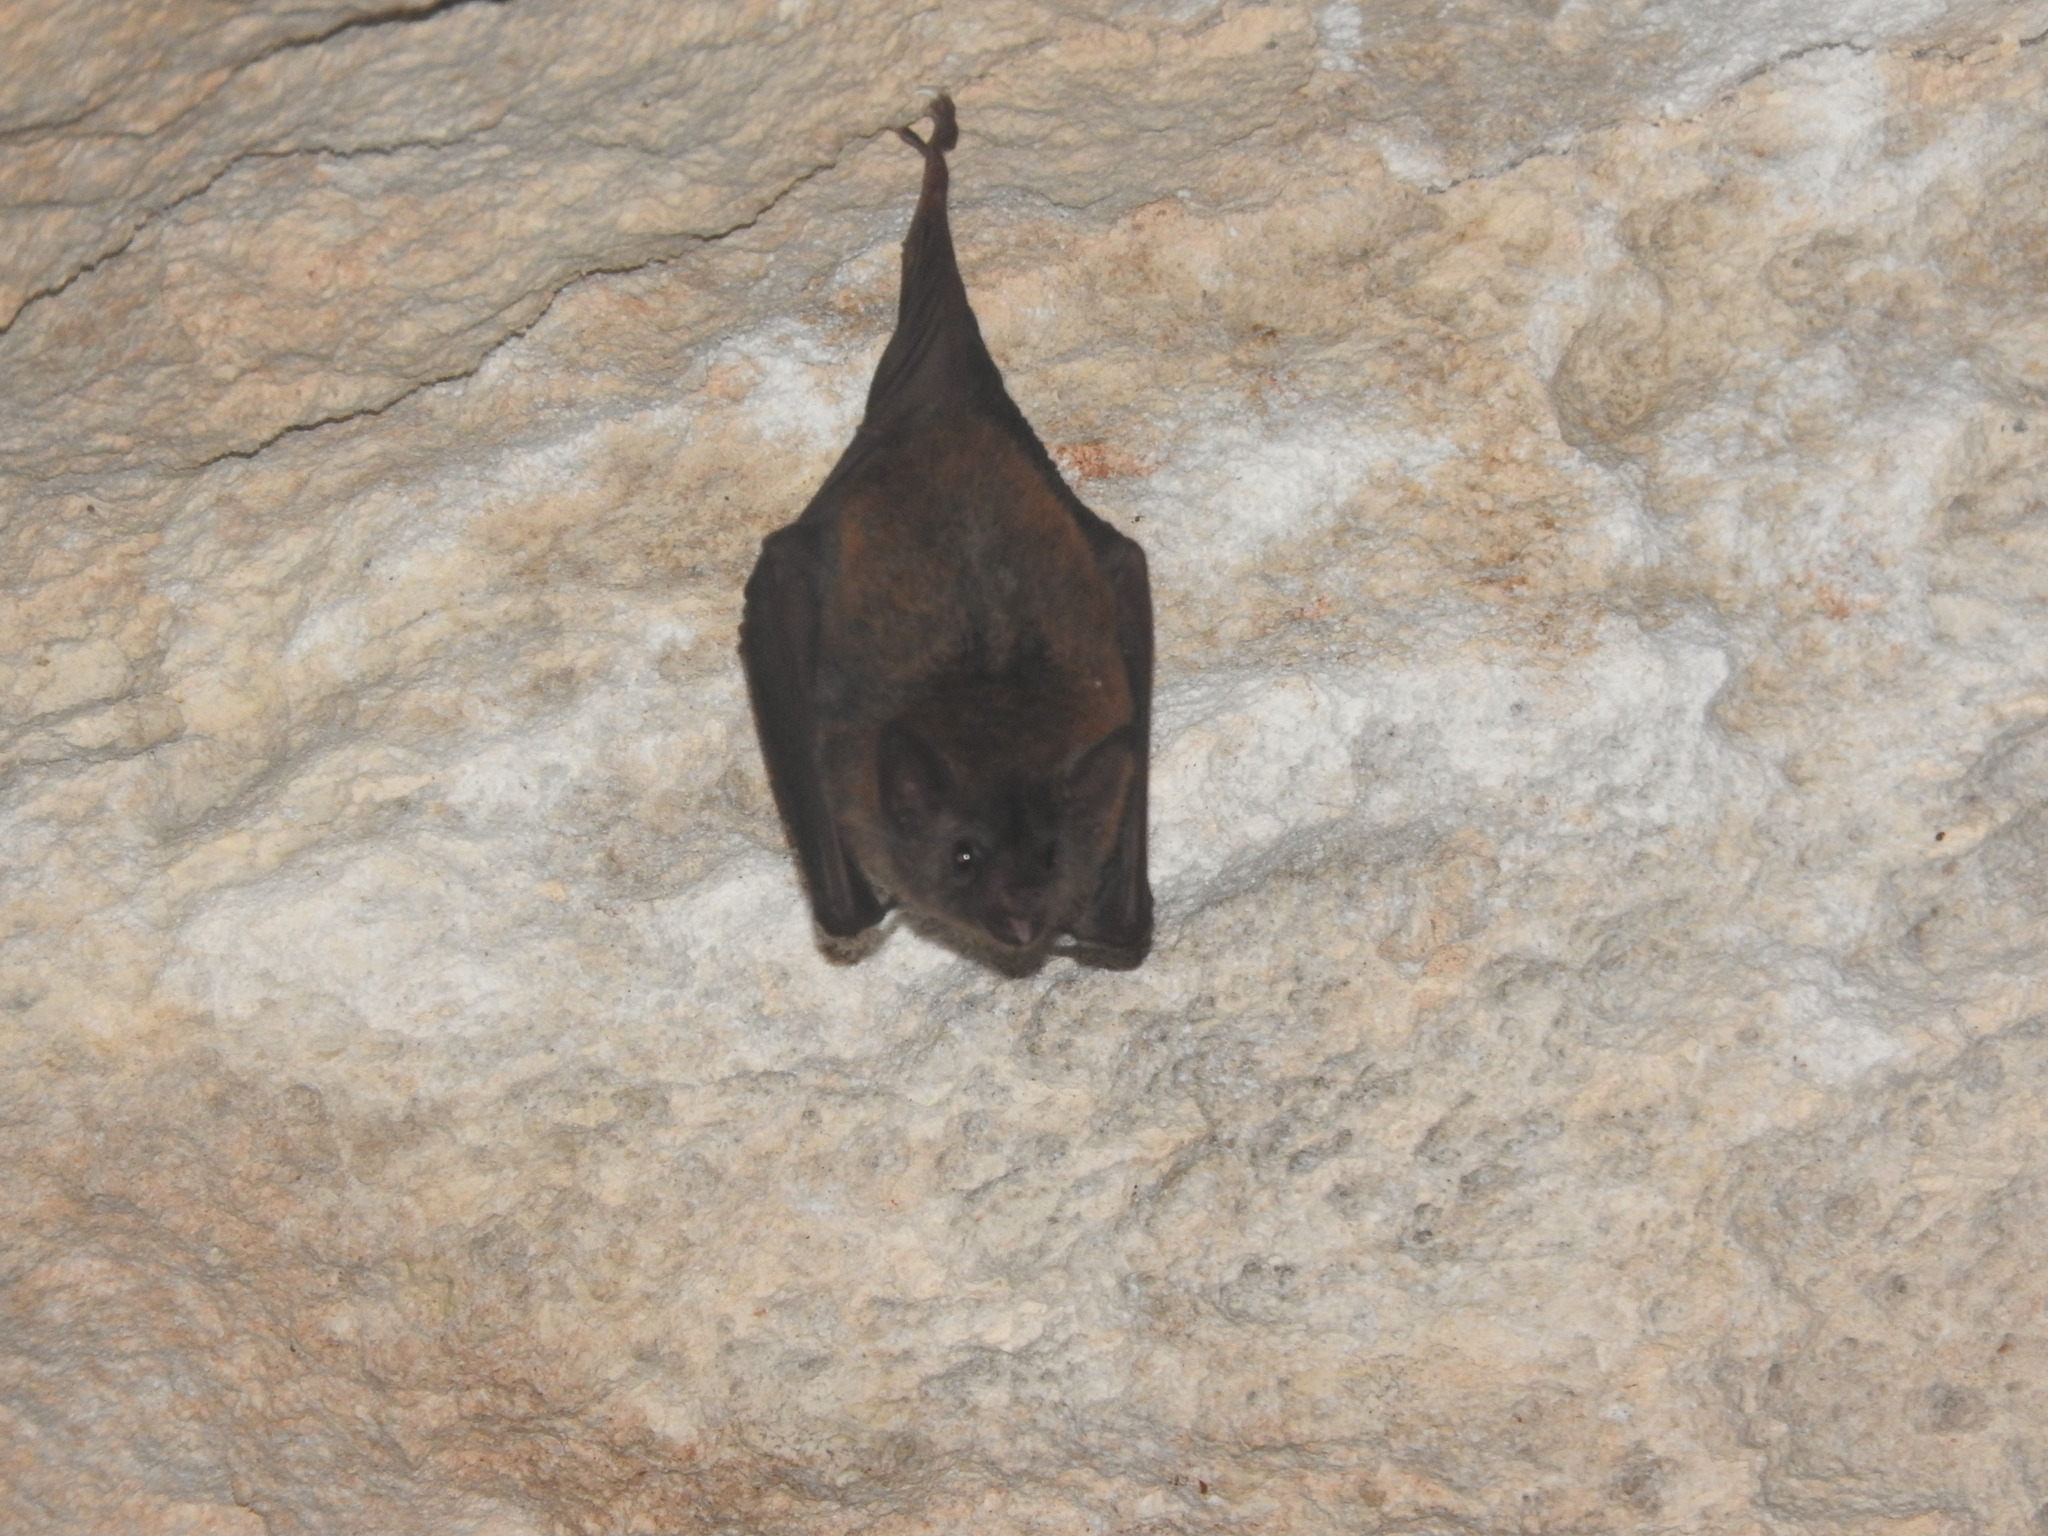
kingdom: Animalia
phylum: Chordata
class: Mammalia
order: Chiroptera
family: Phyllostomidae
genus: Glossophaga
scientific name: Glossophaga soricina
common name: Pallas's long-tongued bat
